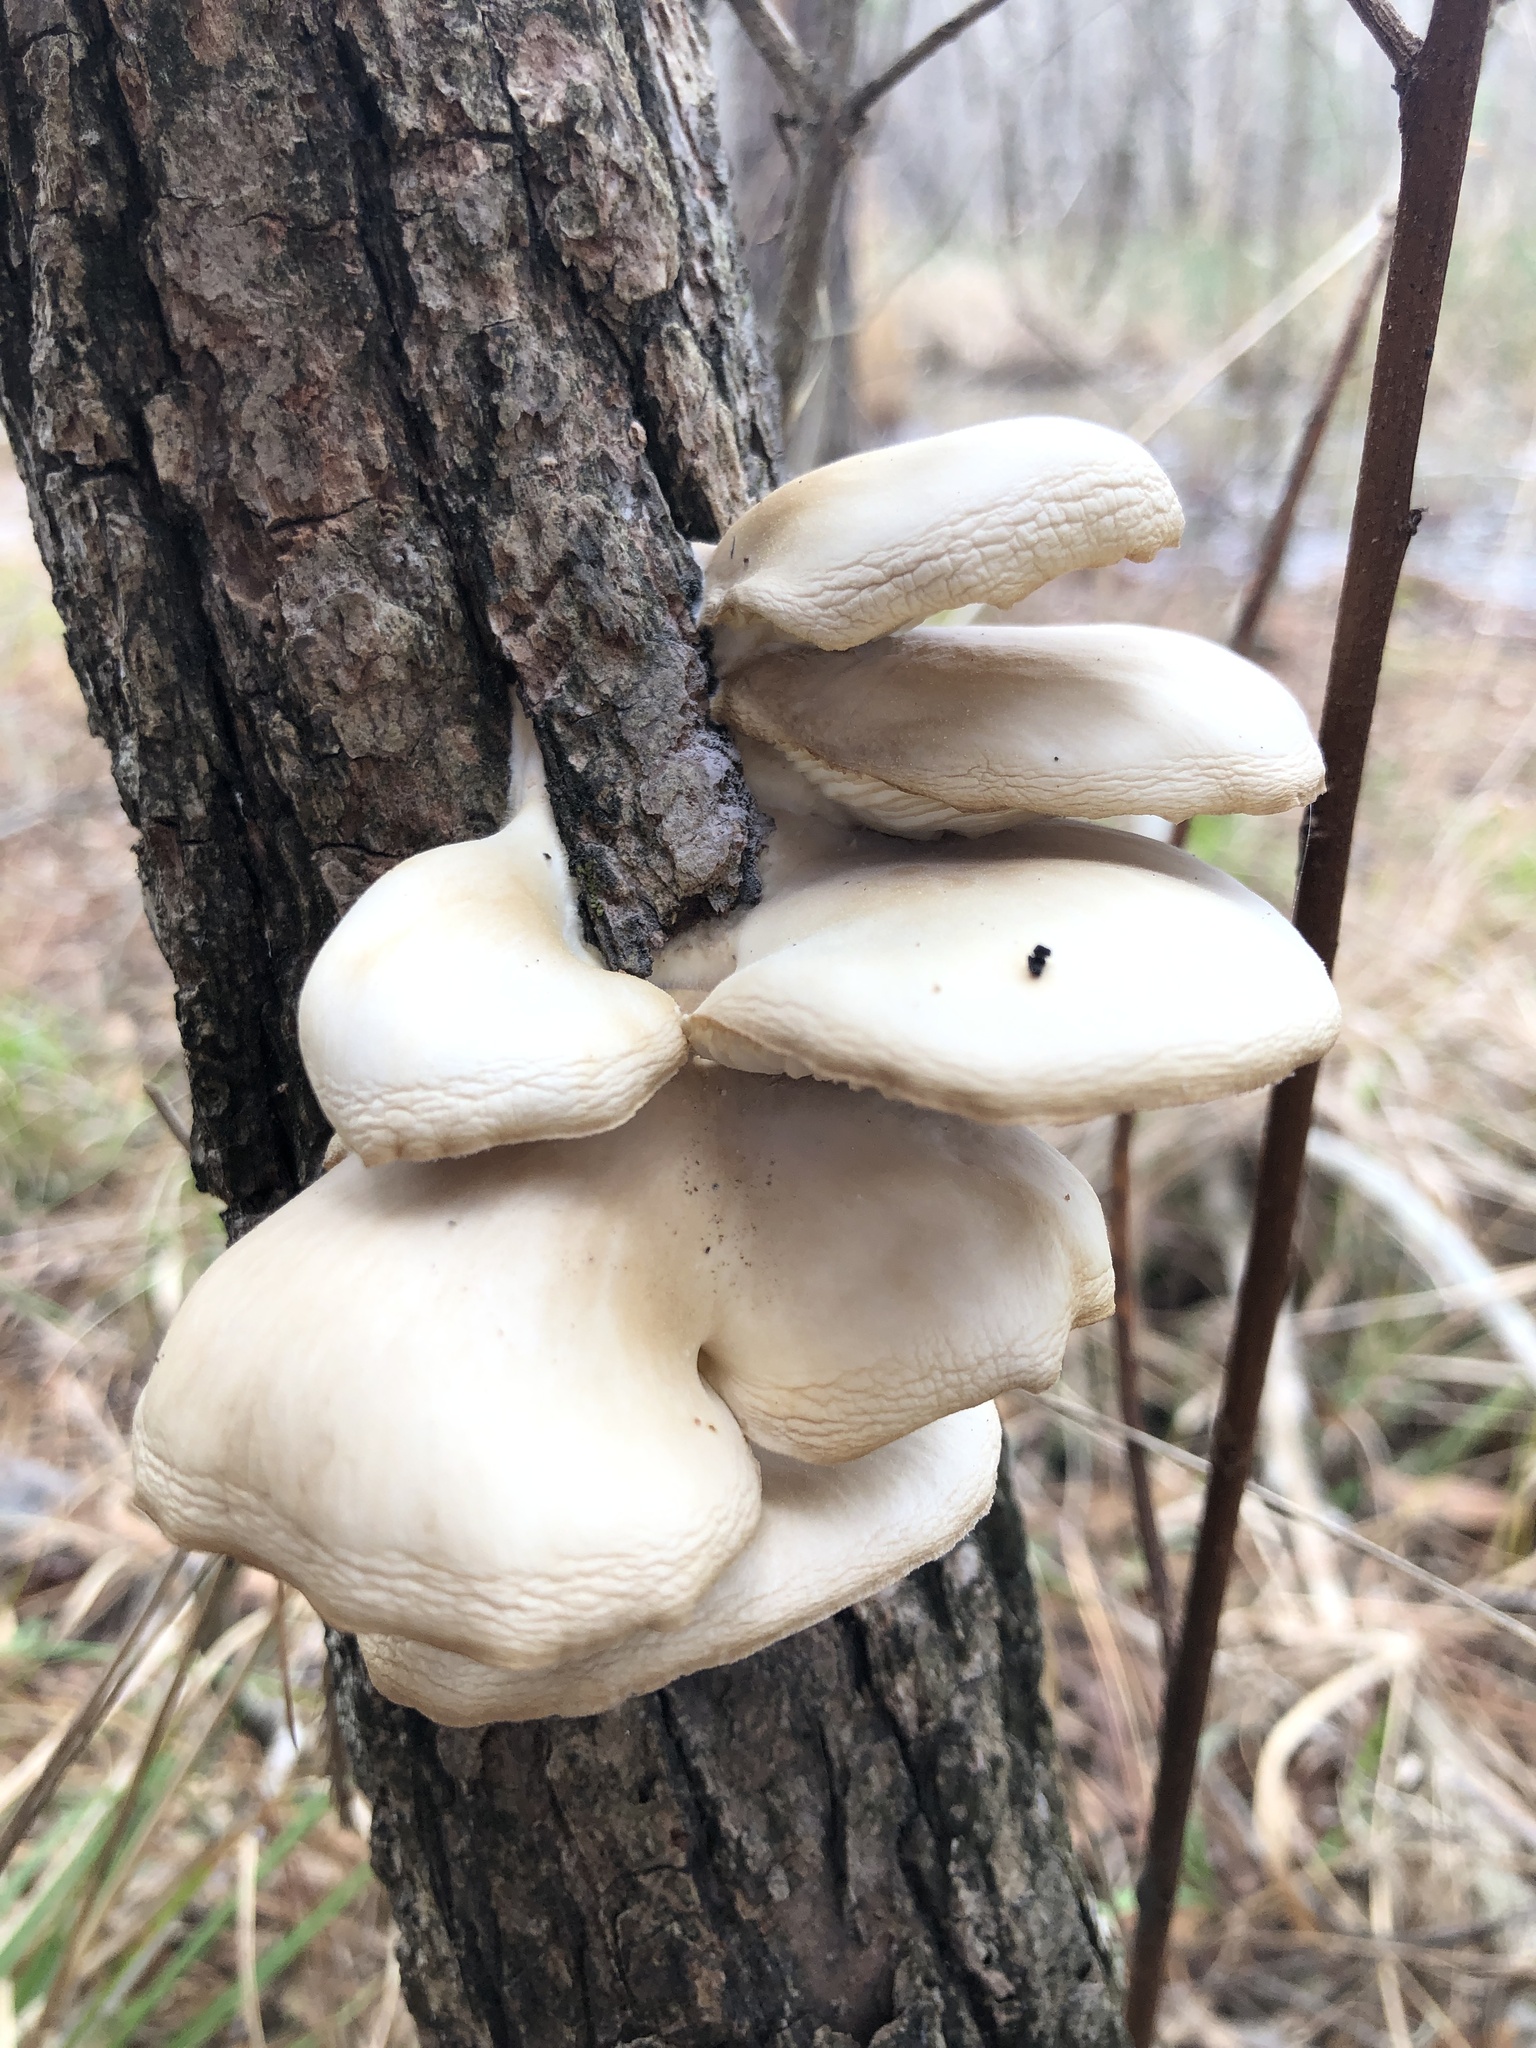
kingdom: Fungi
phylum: Basidiomycota
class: Agaricomycetes
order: Agaricales
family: Pleurotaceae
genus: Pleurotus
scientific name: Pleurotus ostreatus
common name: Oyster mushroom
